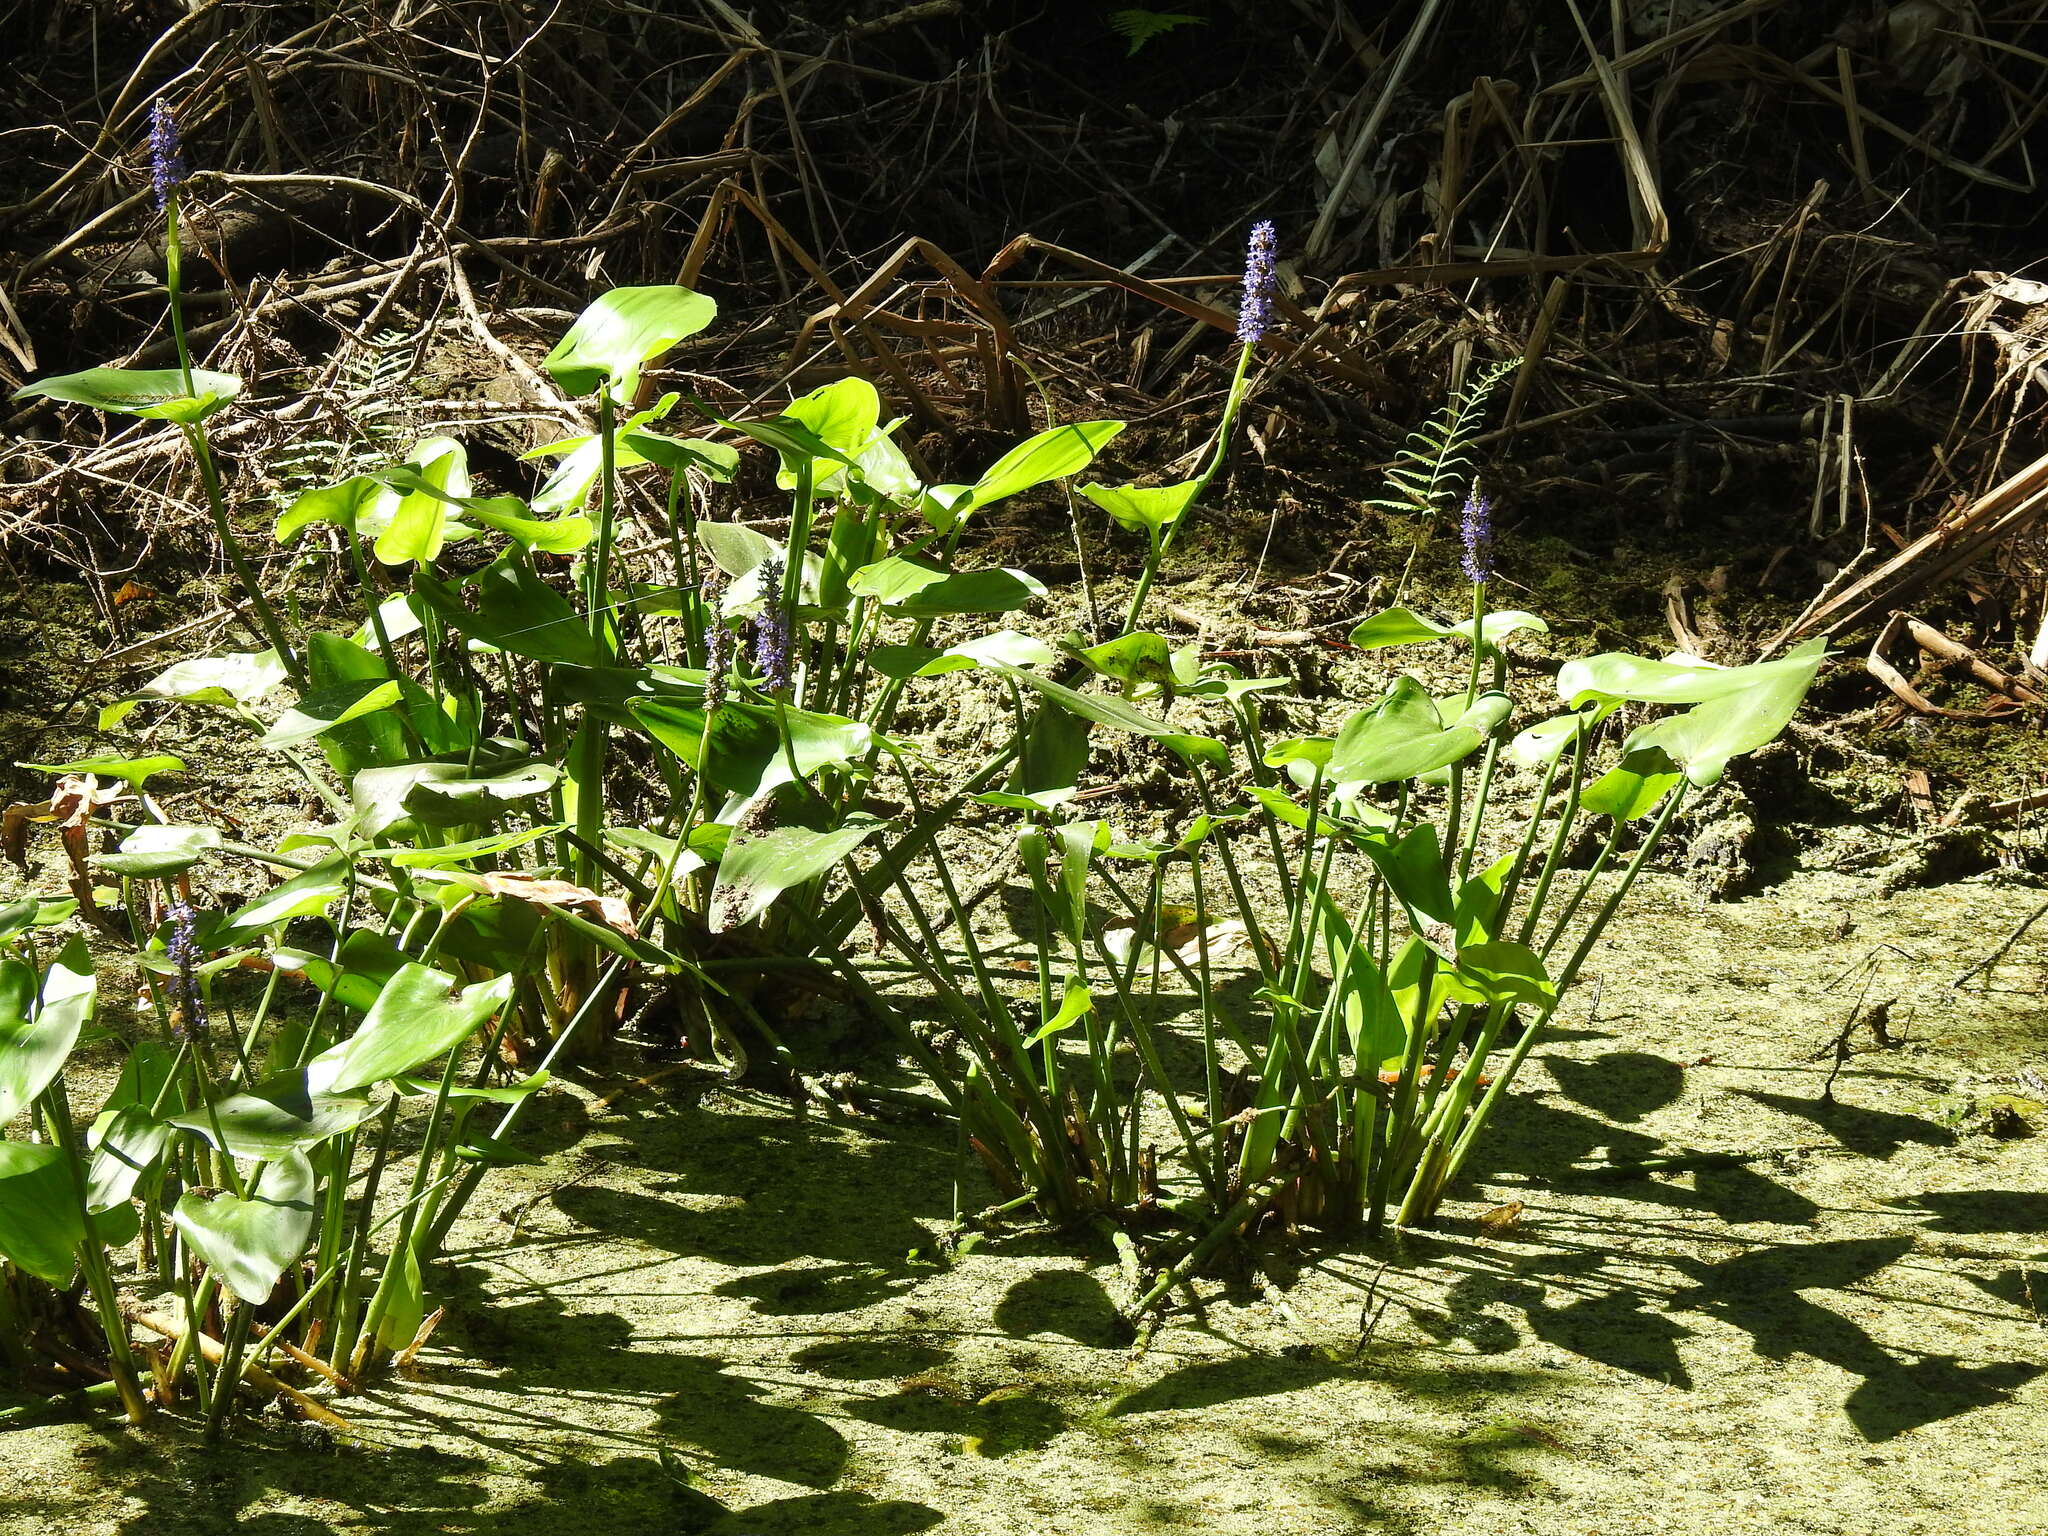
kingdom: Plantae
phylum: Tracheophyta
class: Liliopsida
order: Commelinales
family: Pontederiaceae
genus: Pontederia
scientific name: Pontederia cordata
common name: Pickerelweed
